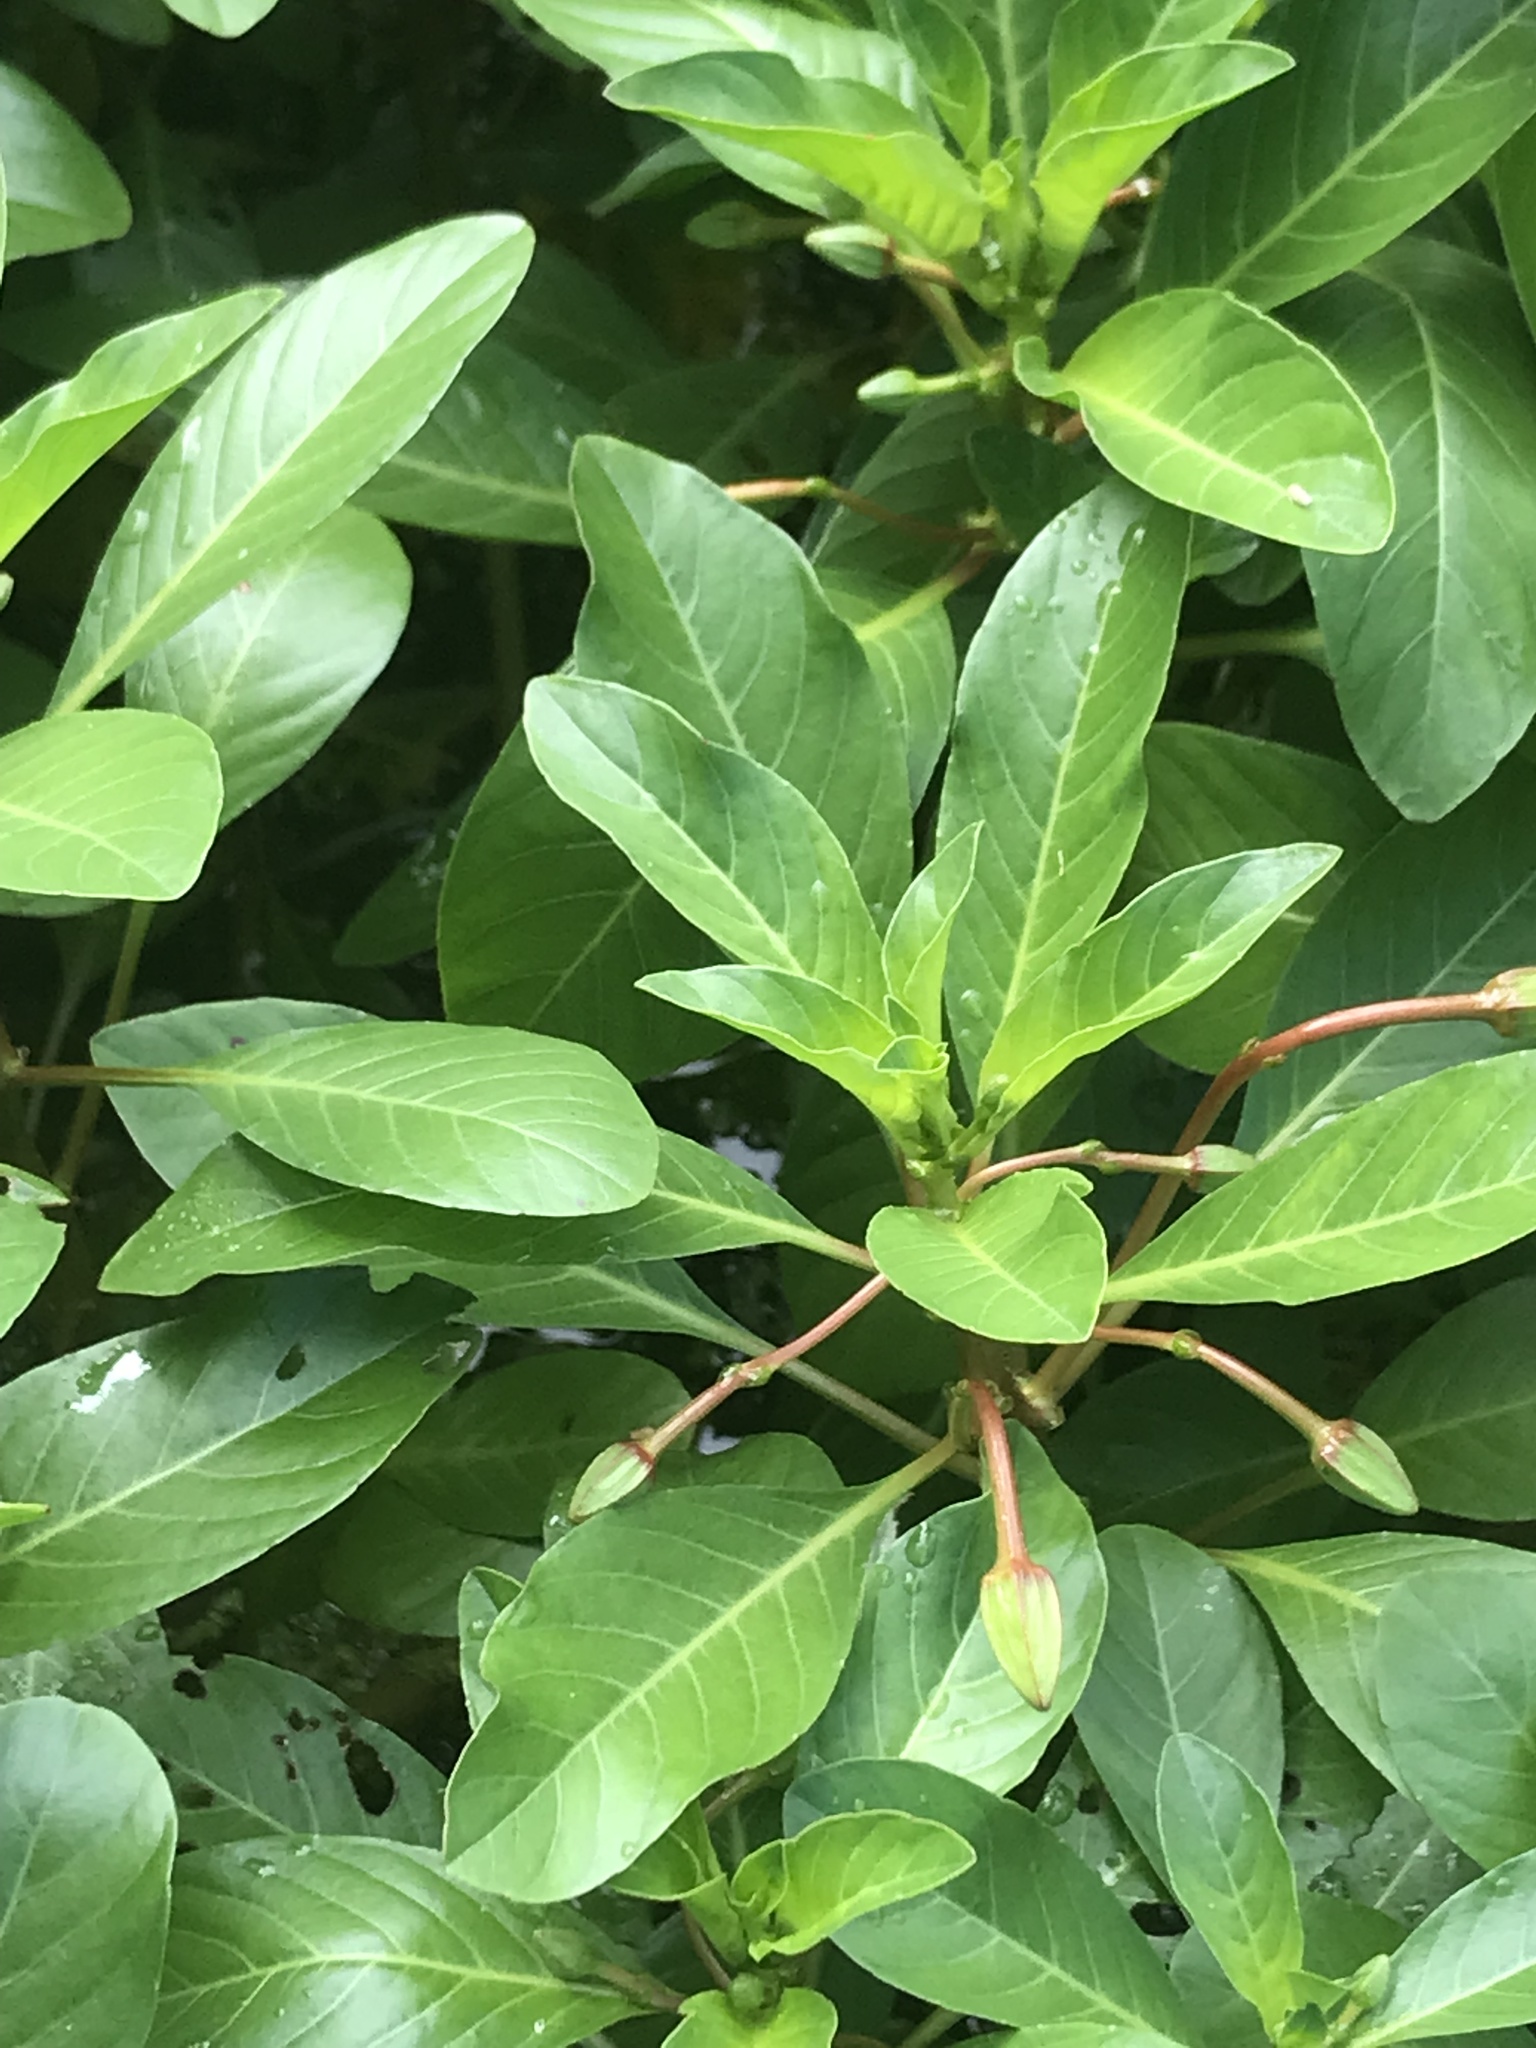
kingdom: Plantae
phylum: Tracheophyta
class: Magnoliopsida
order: Myrtales
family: Onagraceae
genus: Ludwigia
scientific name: Ludwigia peploides
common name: Floating primrose-willow
